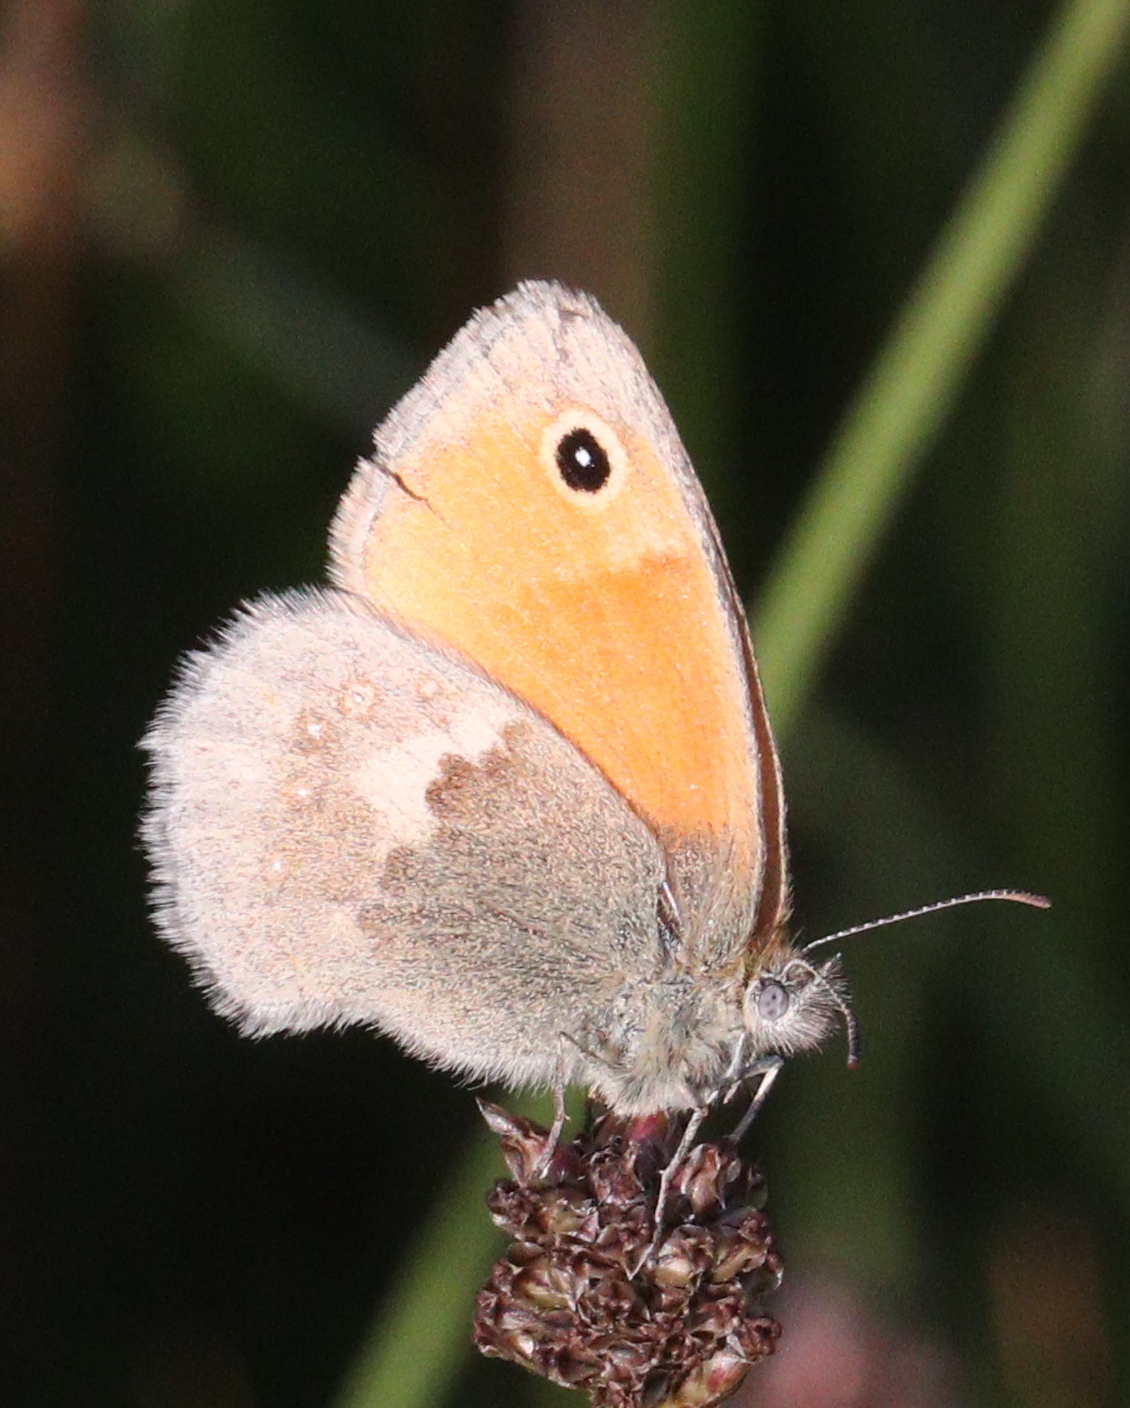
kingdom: Animalia
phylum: Arthropoda
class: Insecta
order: Lepidoptera
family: Nymphalidae
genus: Coenonympha
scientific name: Coenonympha pamphilus
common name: Small heath
